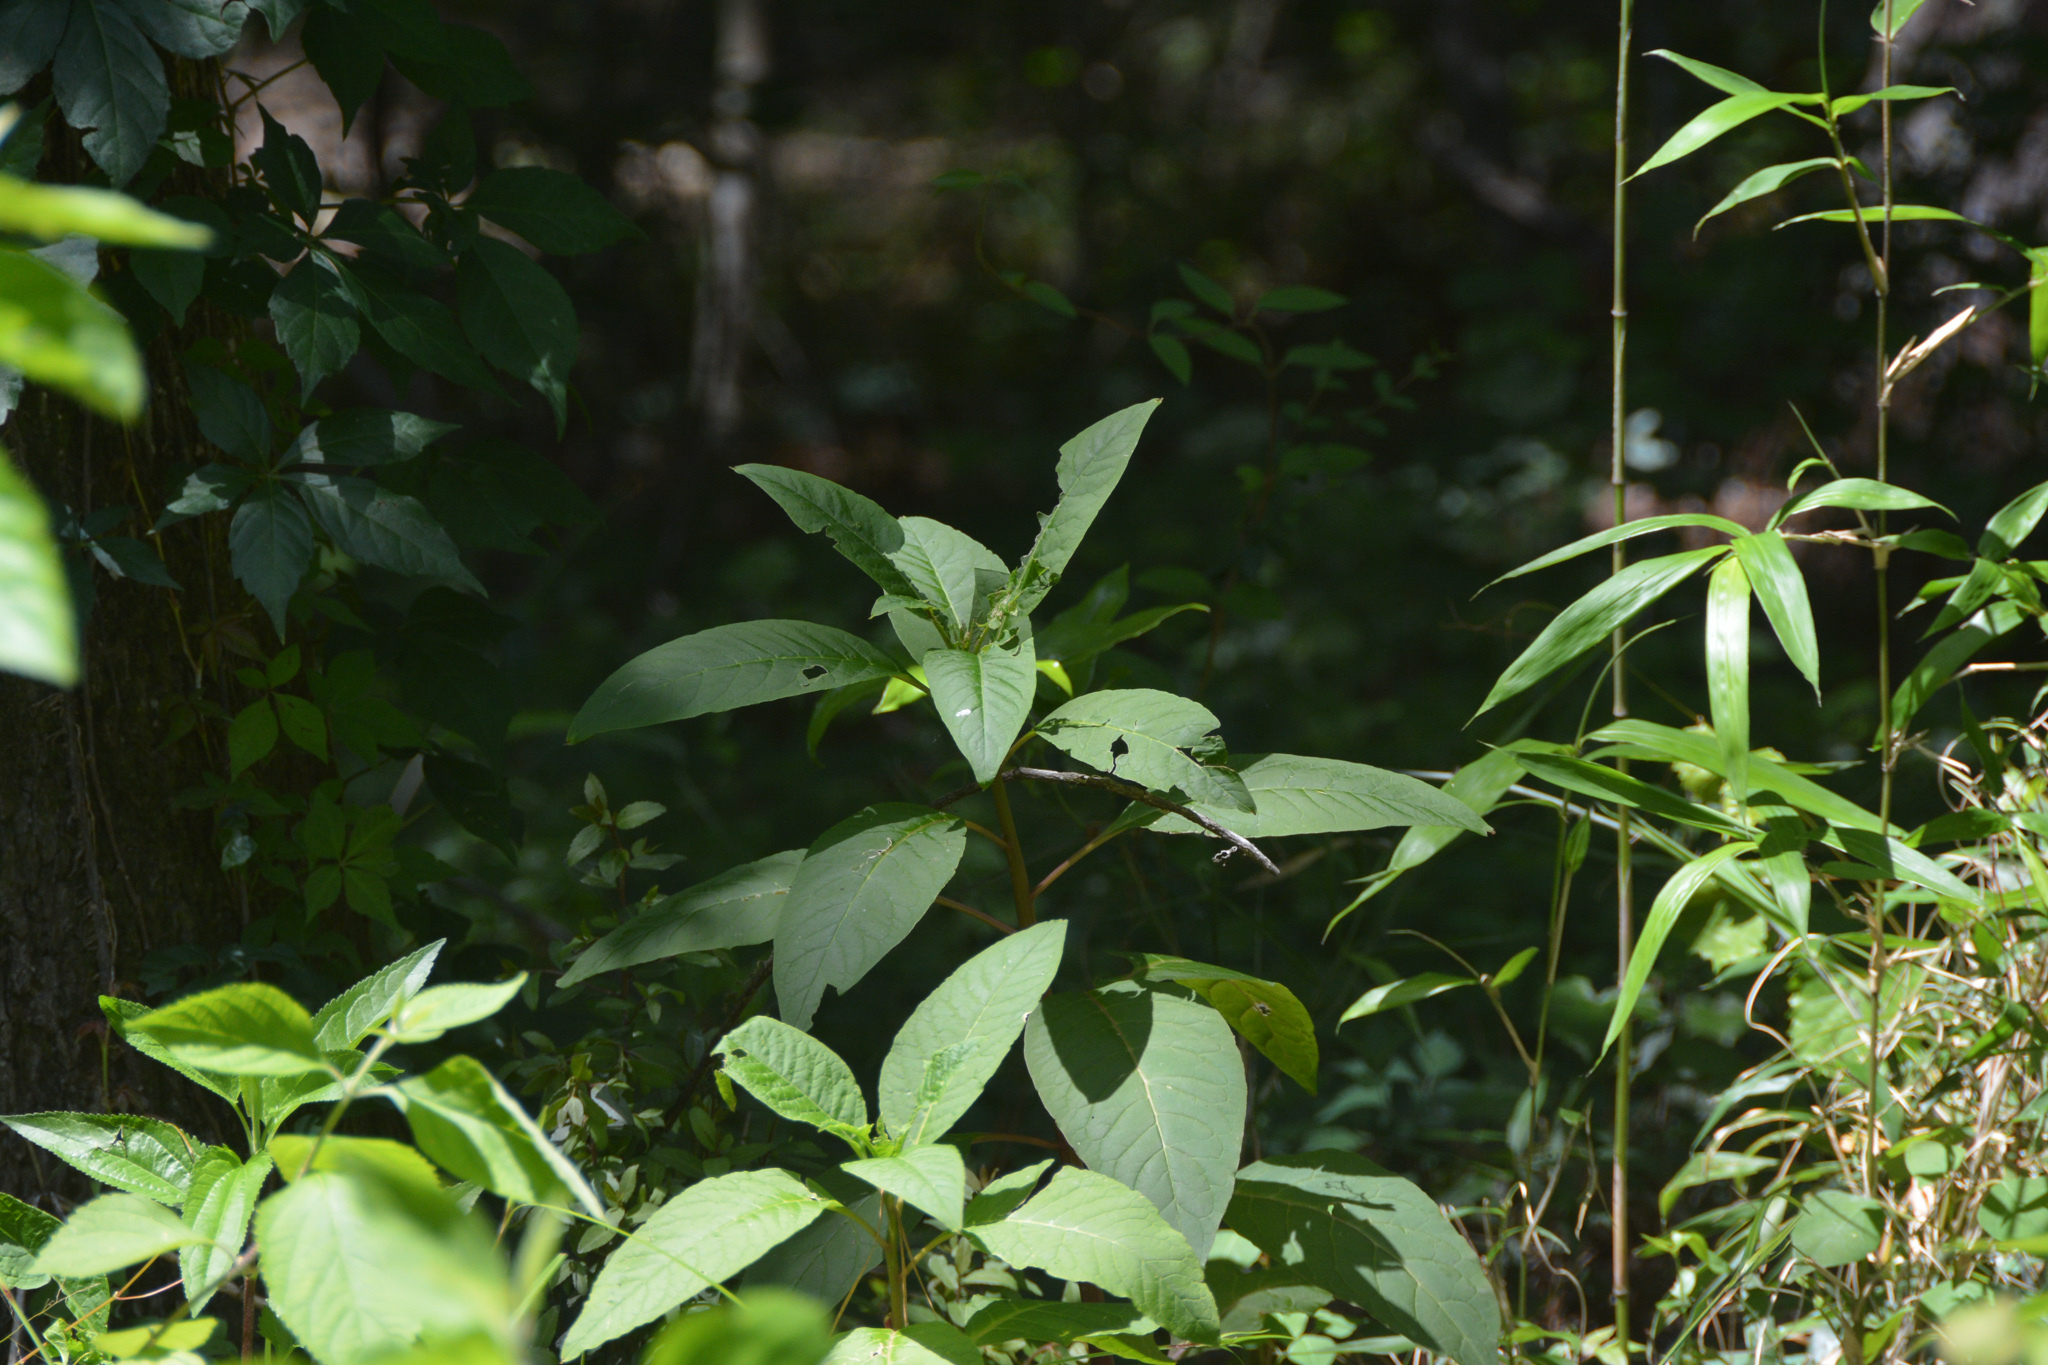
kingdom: Plantae
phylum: Tracheophyta
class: Magnoliopsida
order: Caryophyllales
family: Phytolaccaceae
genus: Phytolacca
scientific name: Phytolacca americana
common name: American pokeweed
